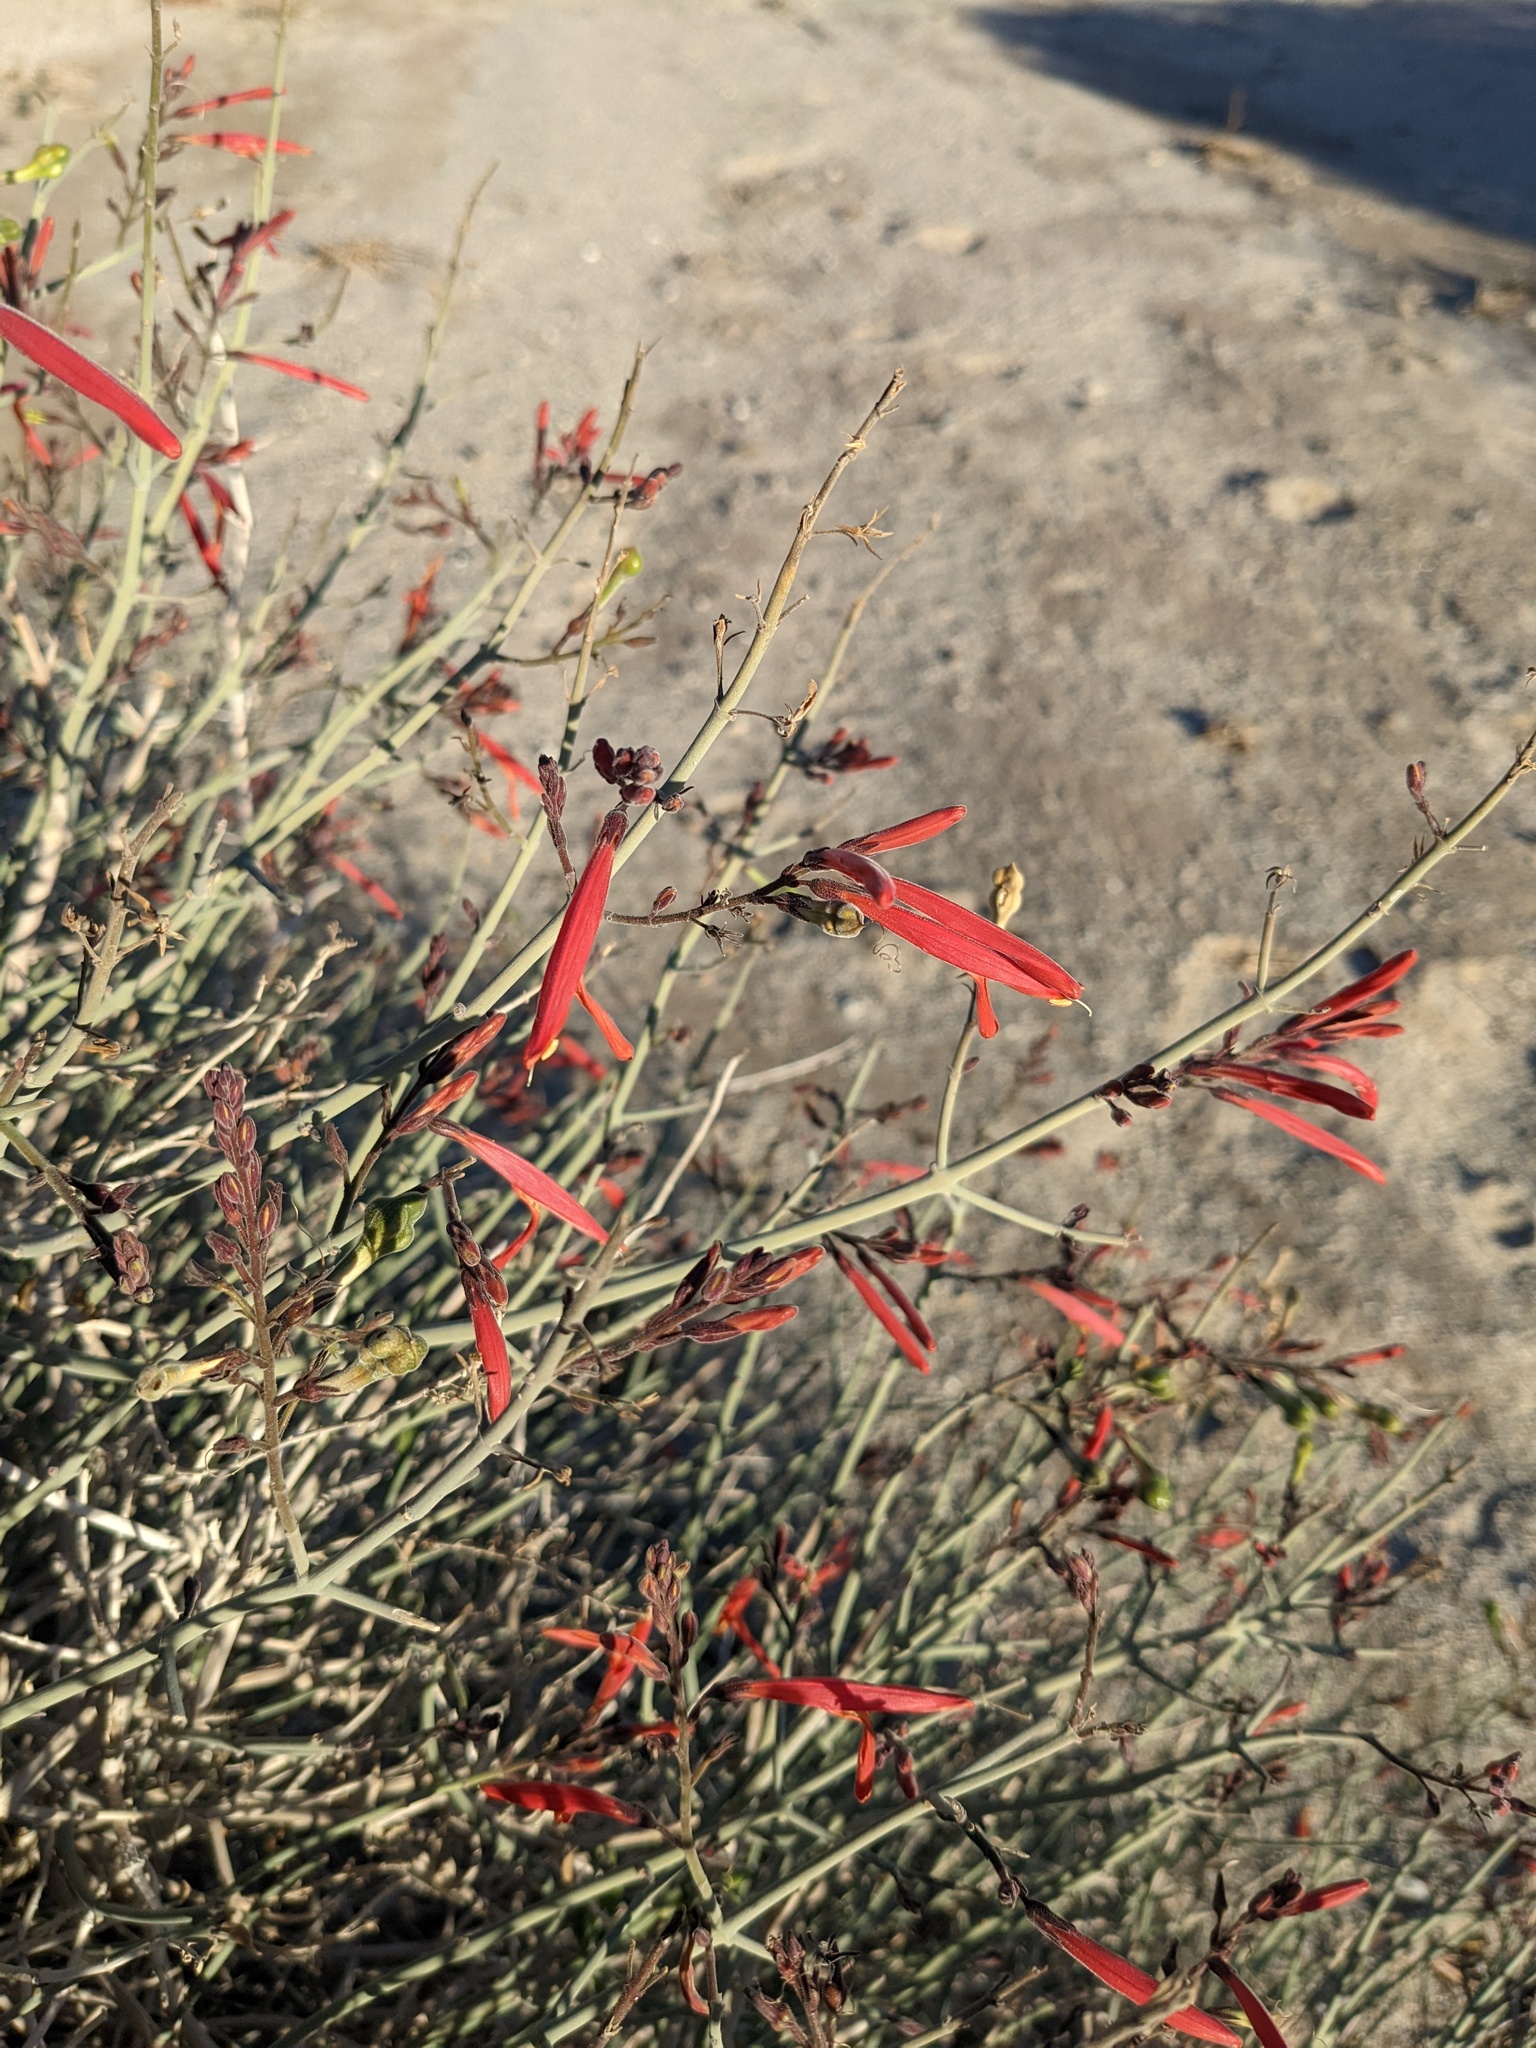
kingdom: Plantae
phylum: Tracheophyta
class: Magnoliopsida
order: Lamiales
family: Acanthaceae
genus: Justicia
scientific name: Justicia californica
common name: Chuparosa-honeysuckle
